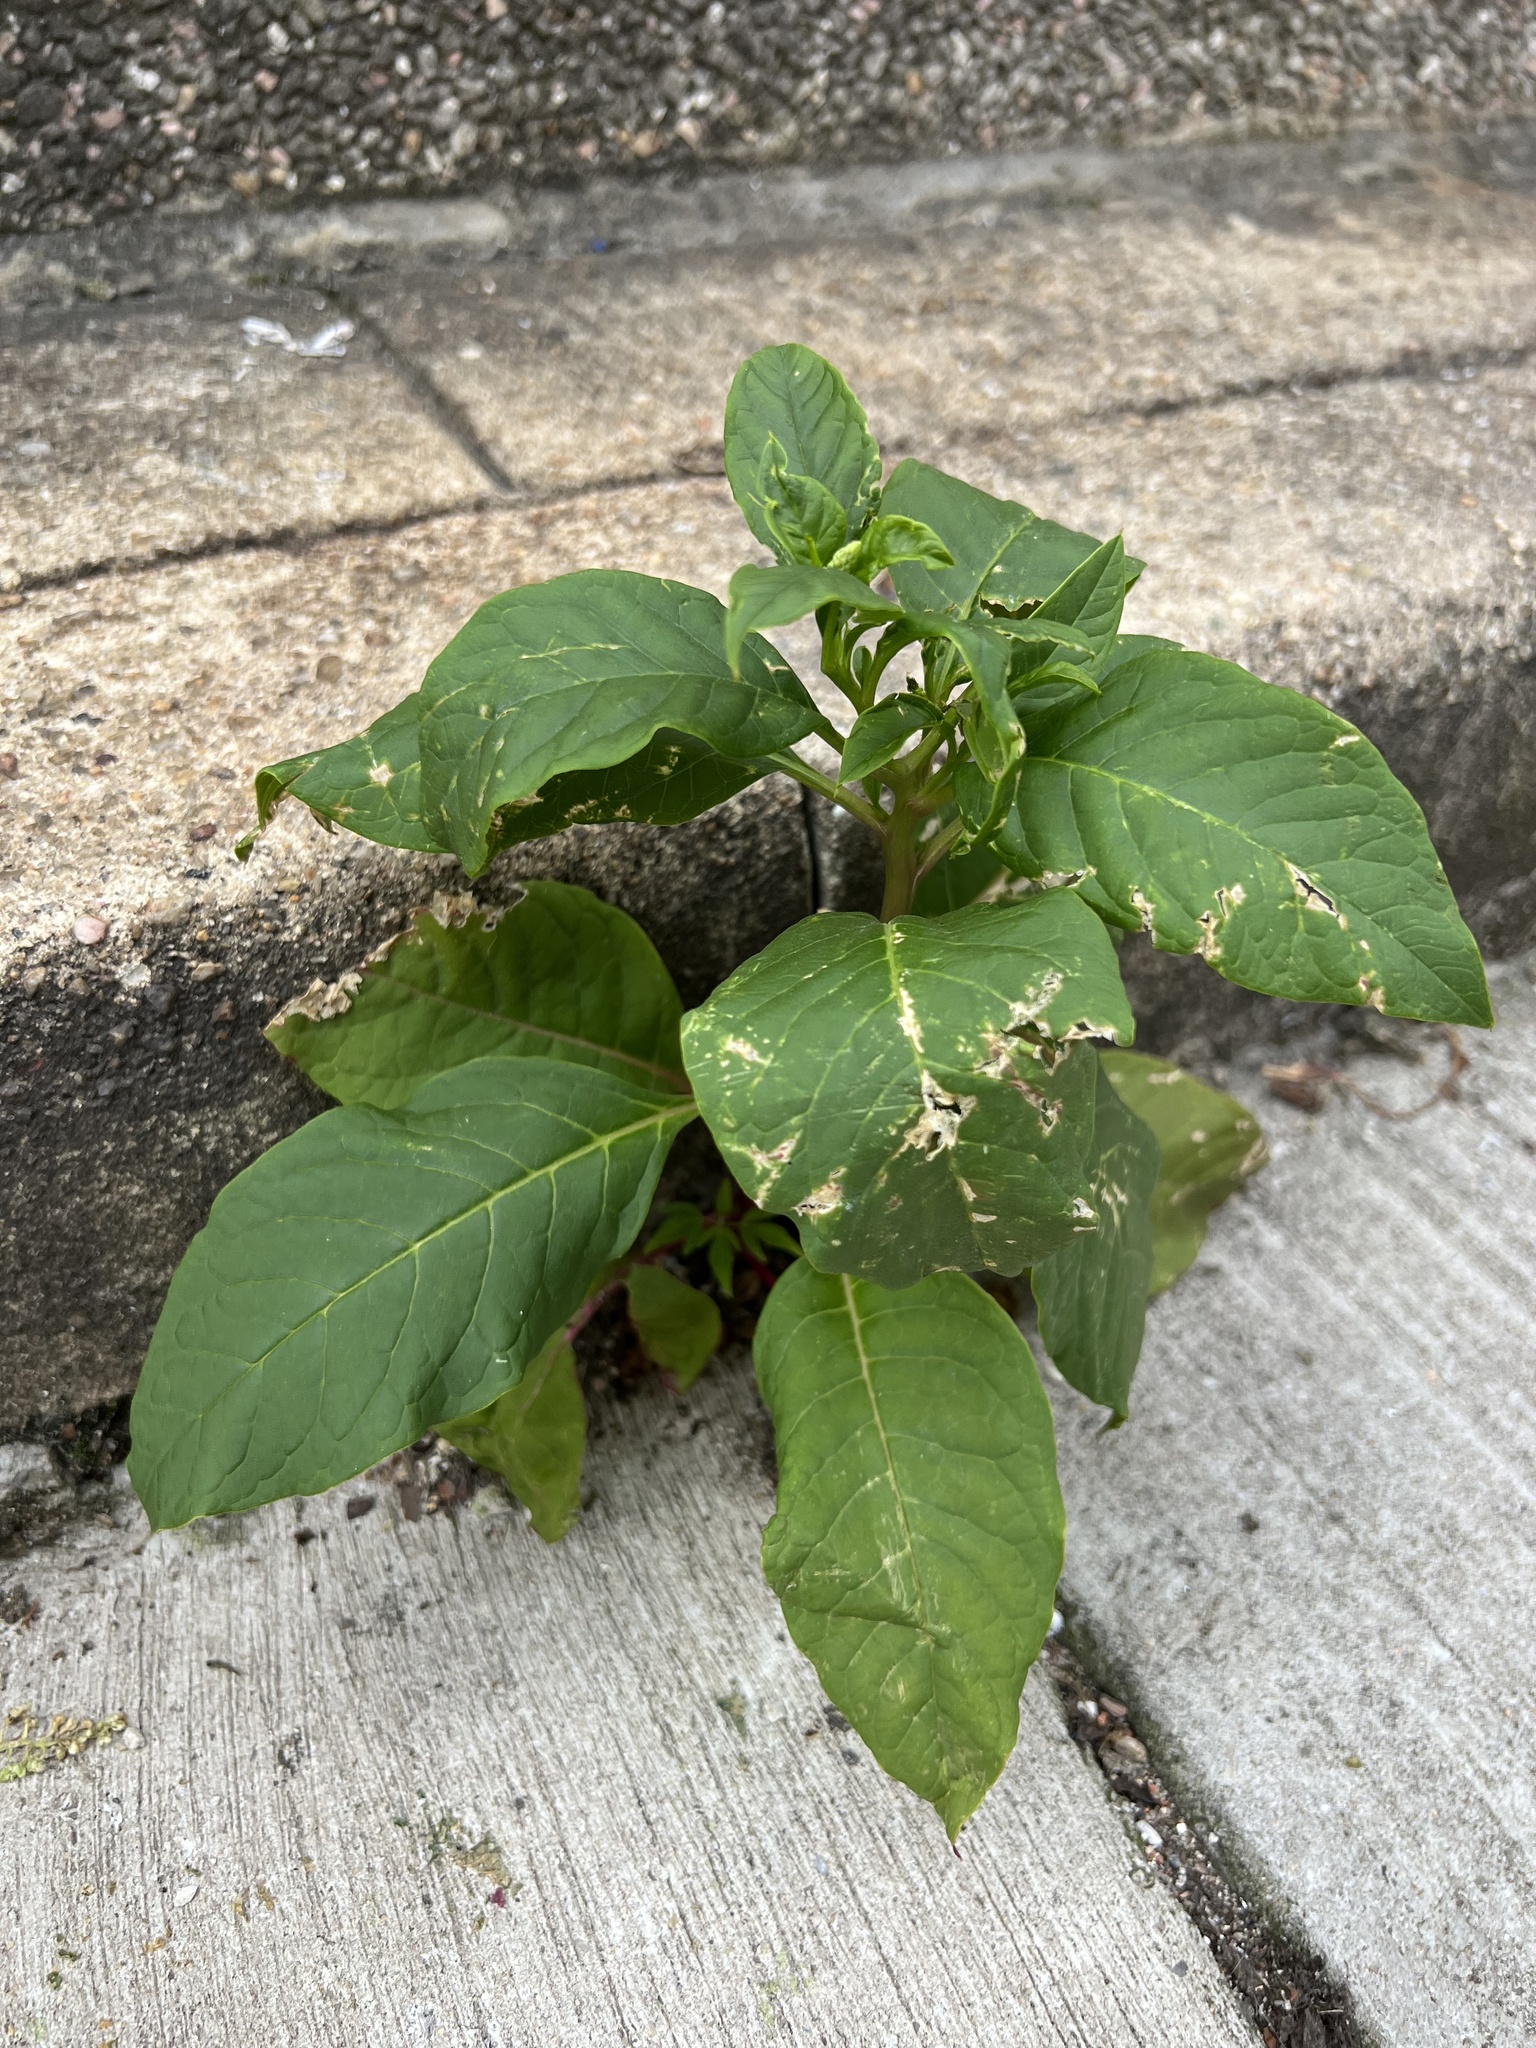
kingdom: Plantae
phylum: Tracheophyta
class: Magnoliopsida
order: Caryophyllales
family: Phytolaccaceae
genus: Phytolacca
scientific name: Phytolacca americana
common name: American pokeweed
